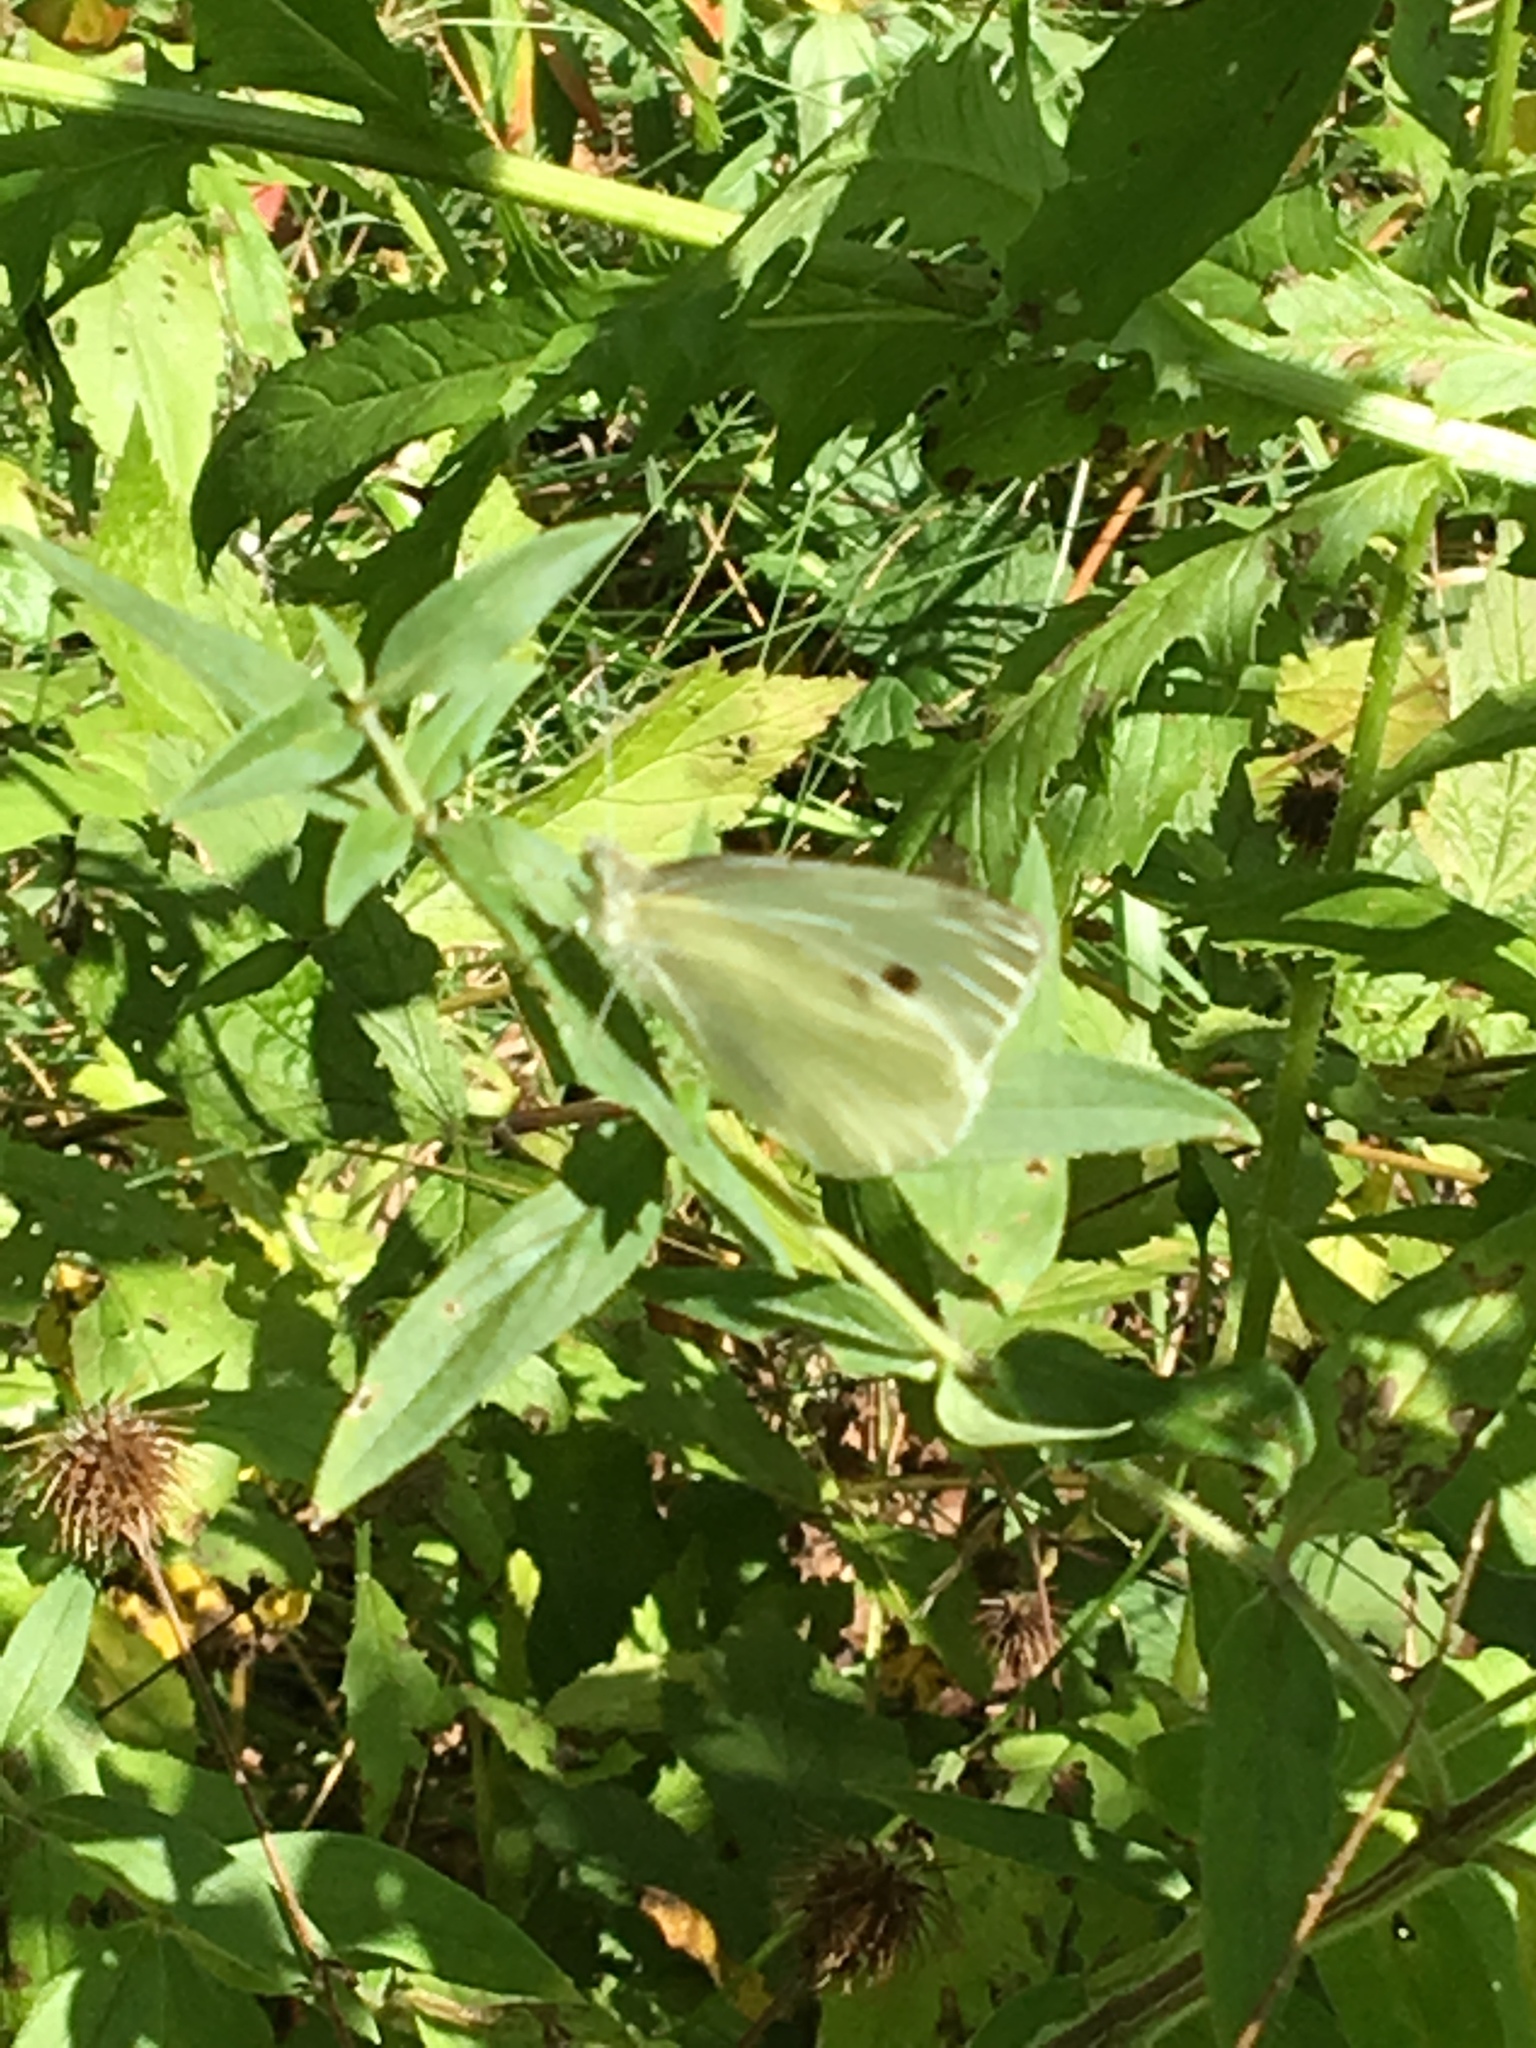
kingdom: Animalia
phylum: Arthropoda
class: Insecta
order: Lepidoptera
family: Pieridae
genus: Pieris
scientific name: Pieris rapae
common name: Small white
